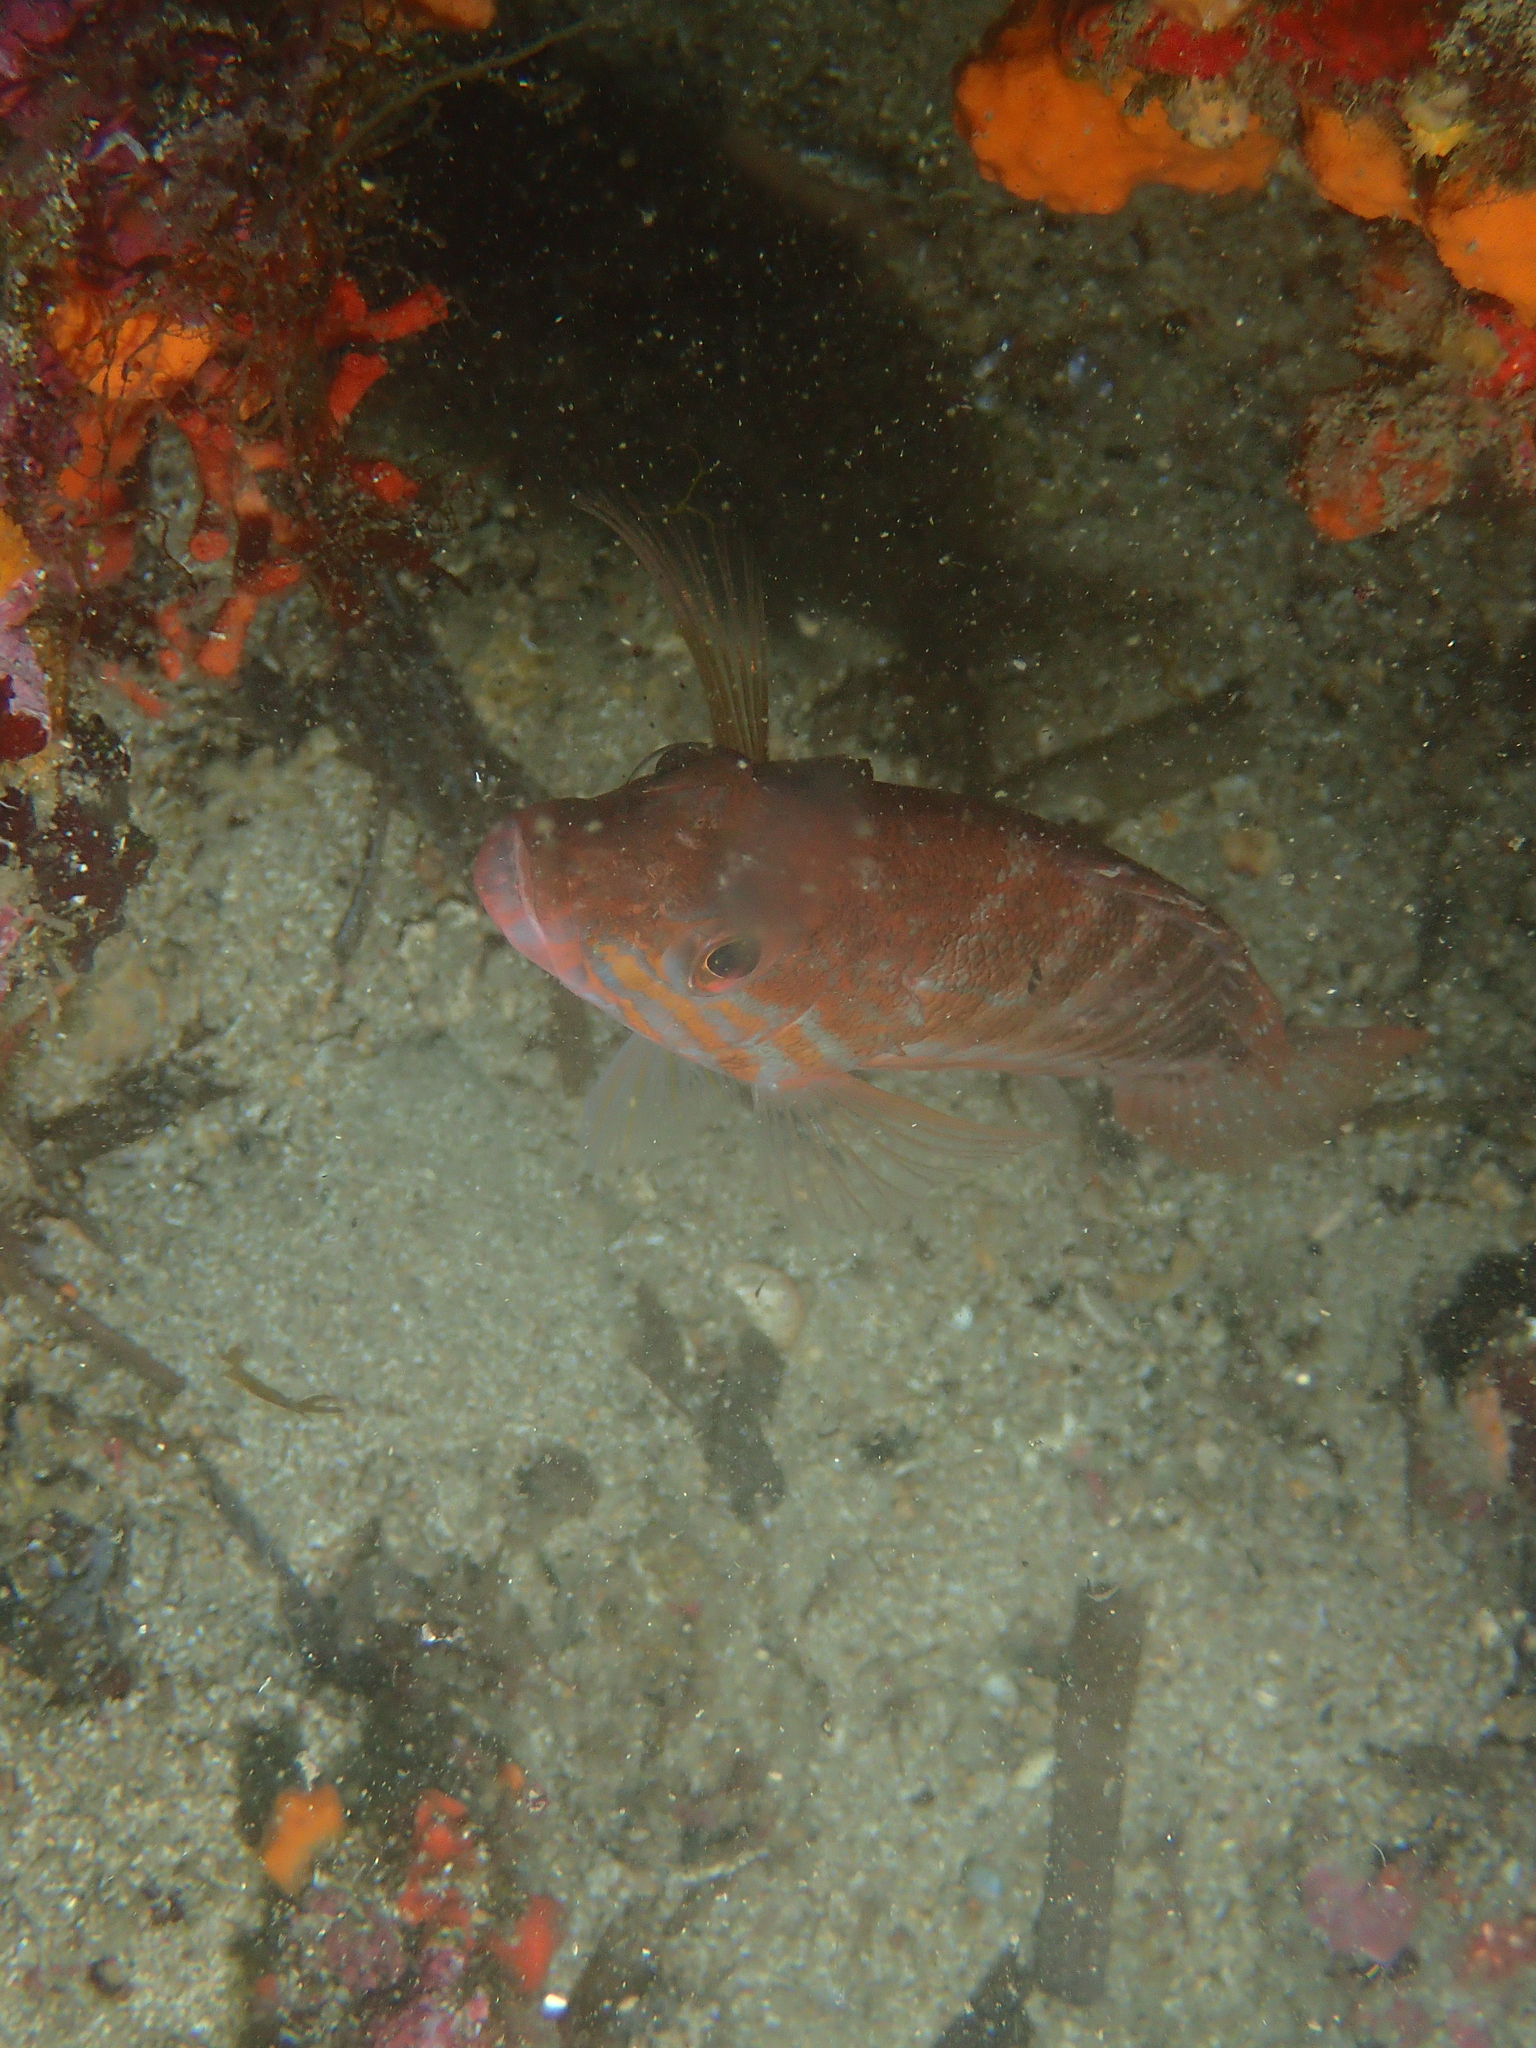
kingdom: Animalia
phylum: Chordata
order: Perciformes
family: Serranidae
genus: Serranus
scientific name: Serranus cabrilla
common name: Comber
